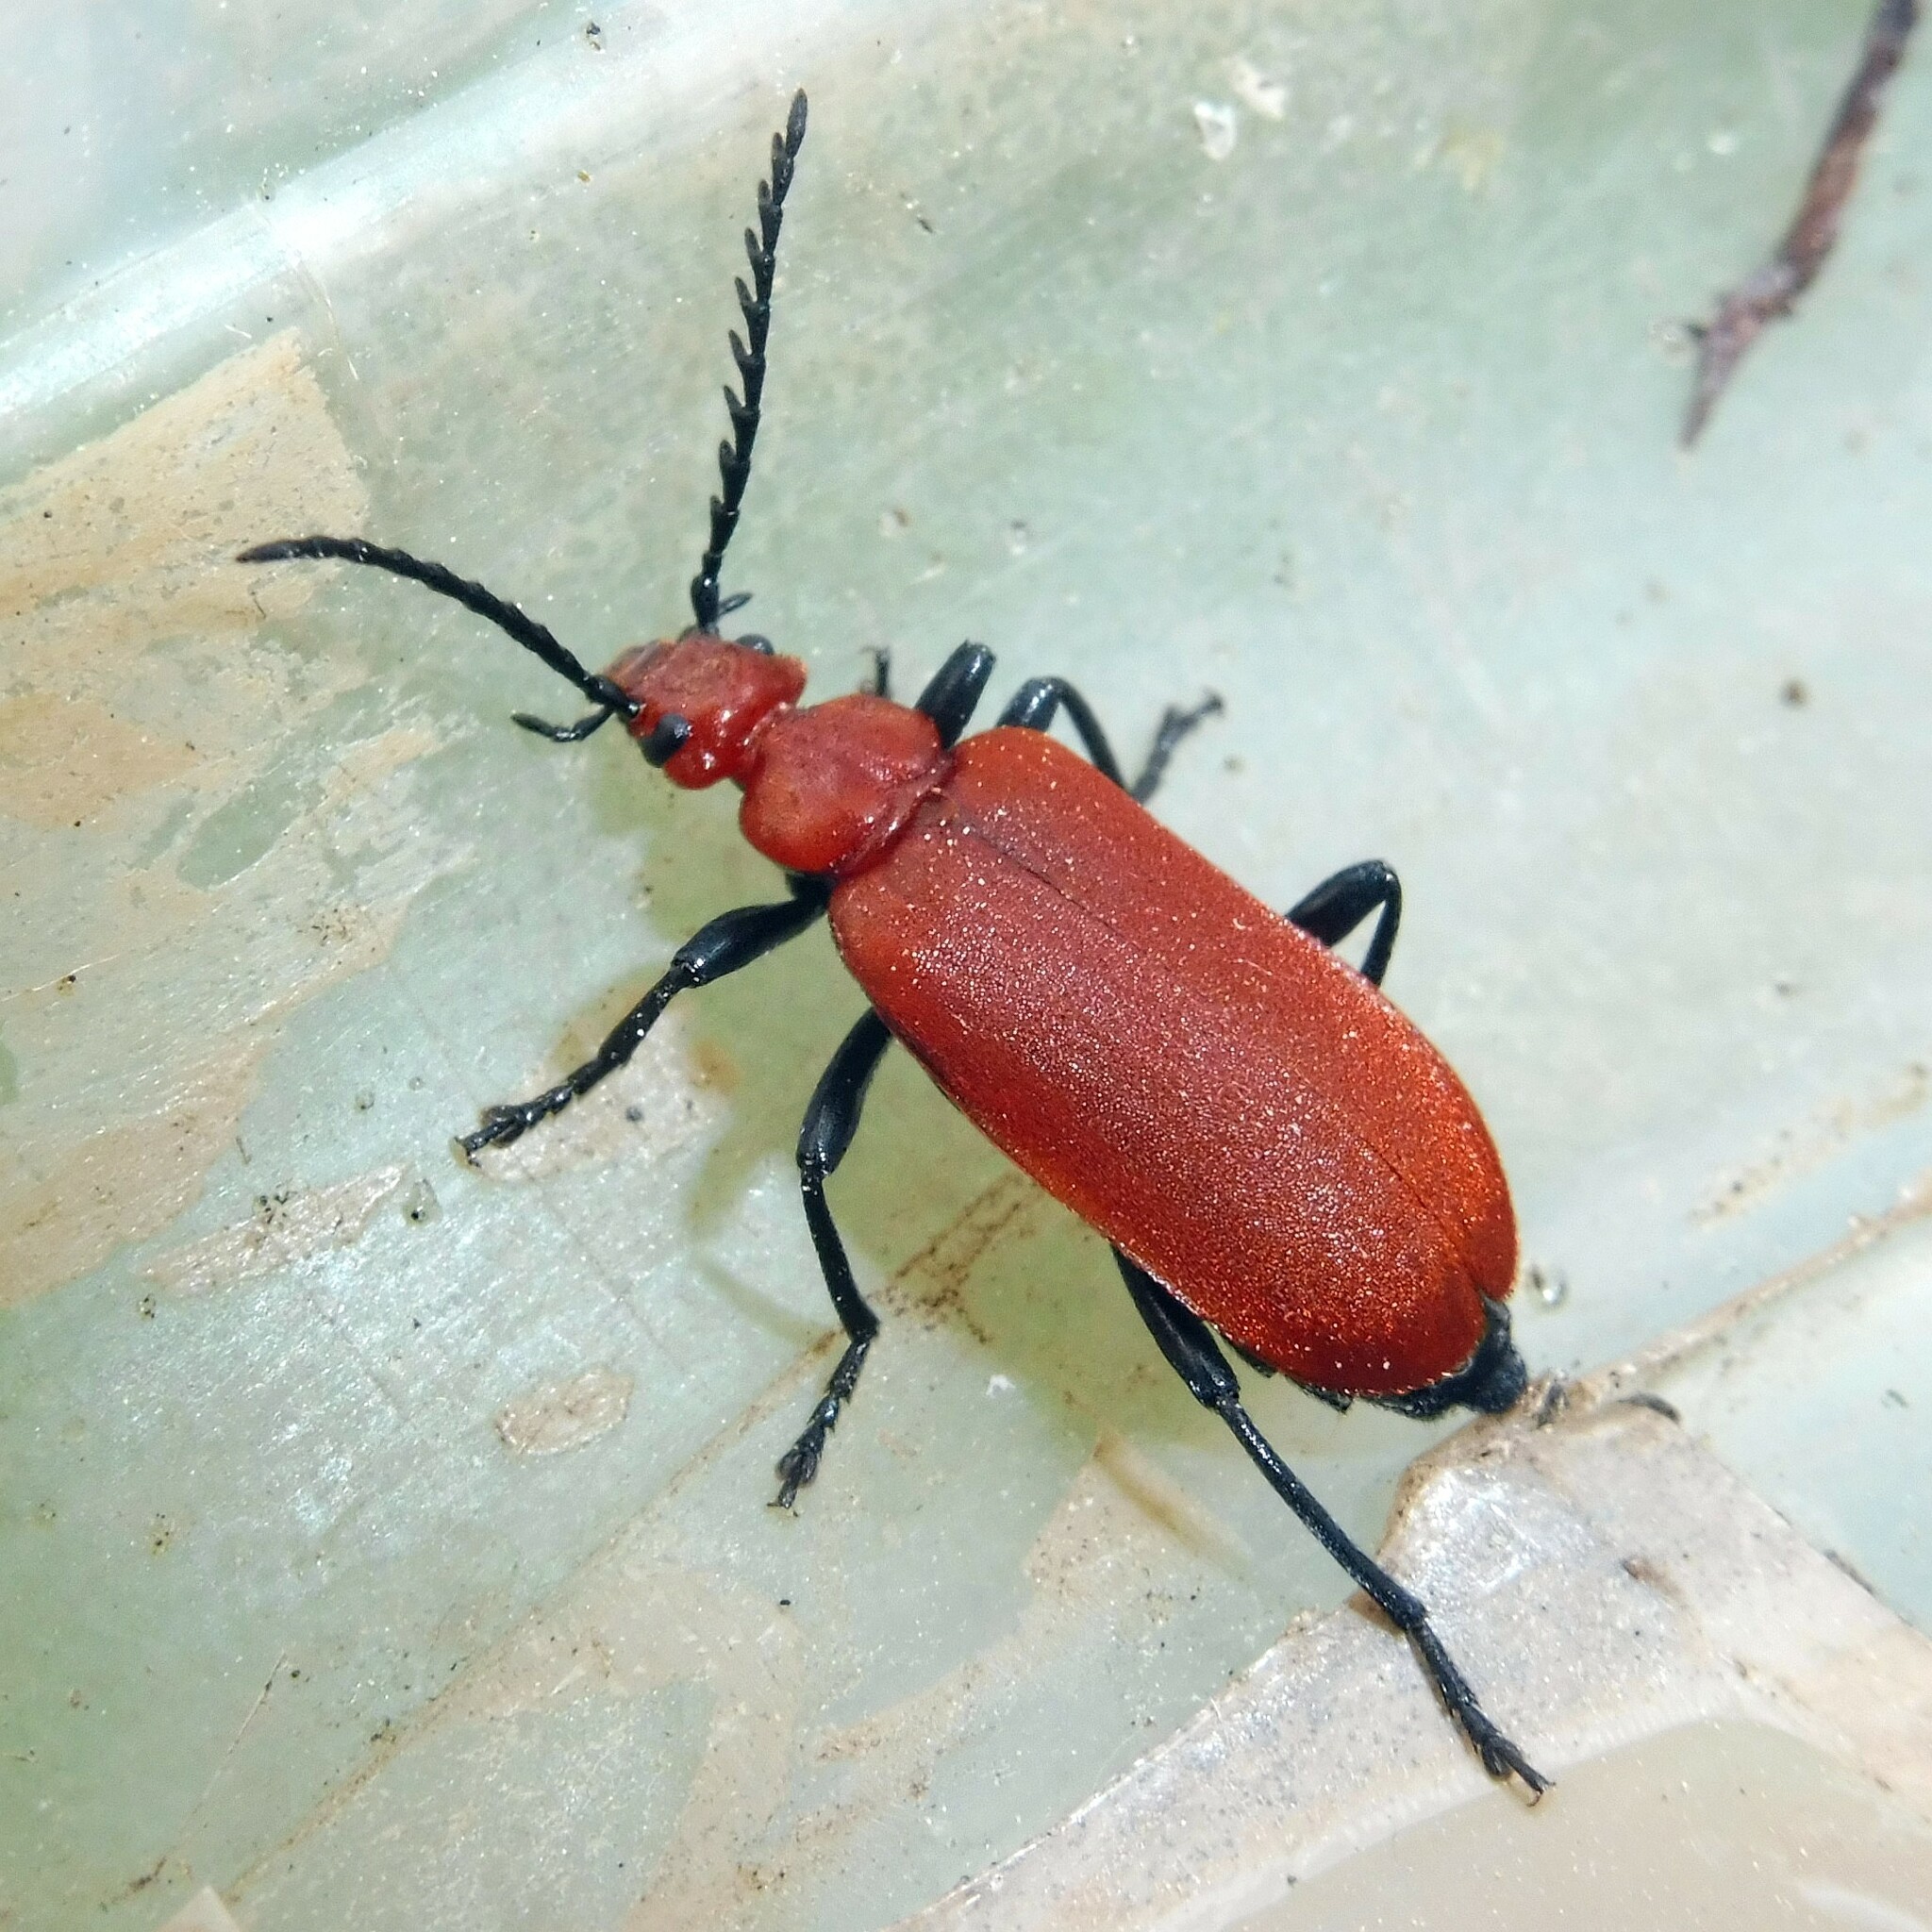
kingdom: Animalia
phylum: Arthropoda
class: Insecta
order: Coleoptera
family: Pyrochroidae
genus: Pyrochroa
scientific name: Pyrochroa serraticornis
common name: Red-headed cardinal beetle
